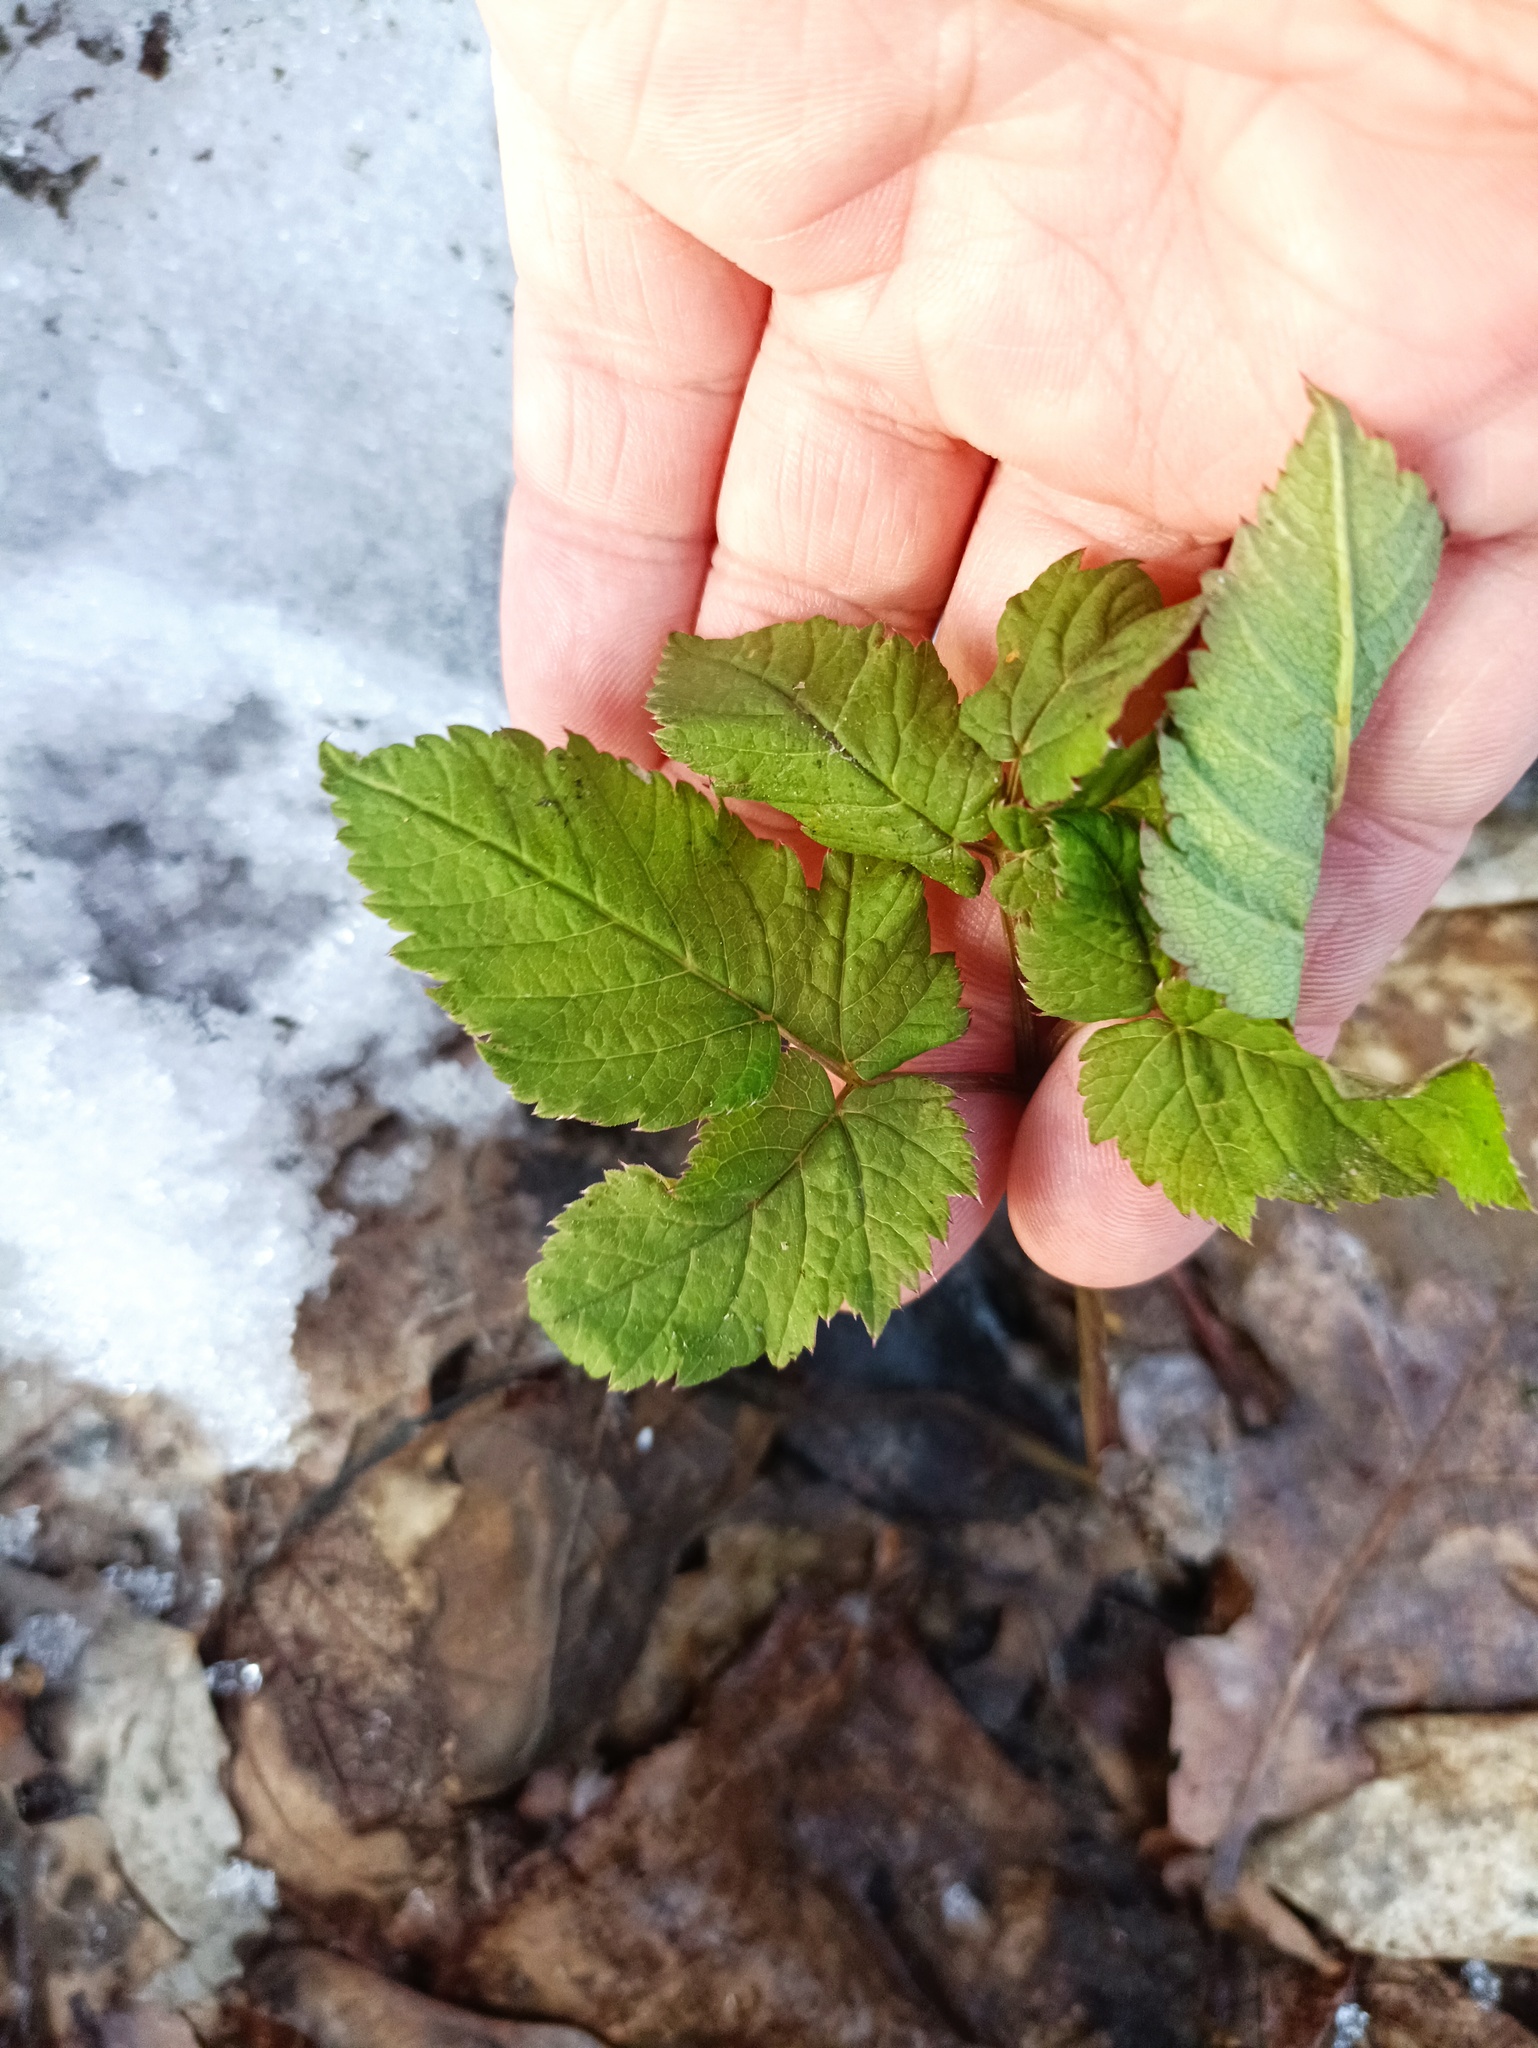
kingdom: Plantae
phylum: Tracheophyta
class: Magnoliopsida
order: Apiales
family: Apiaceae
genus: Aegopodium
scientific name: Aegopodium podagraria
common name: Ground-elder
